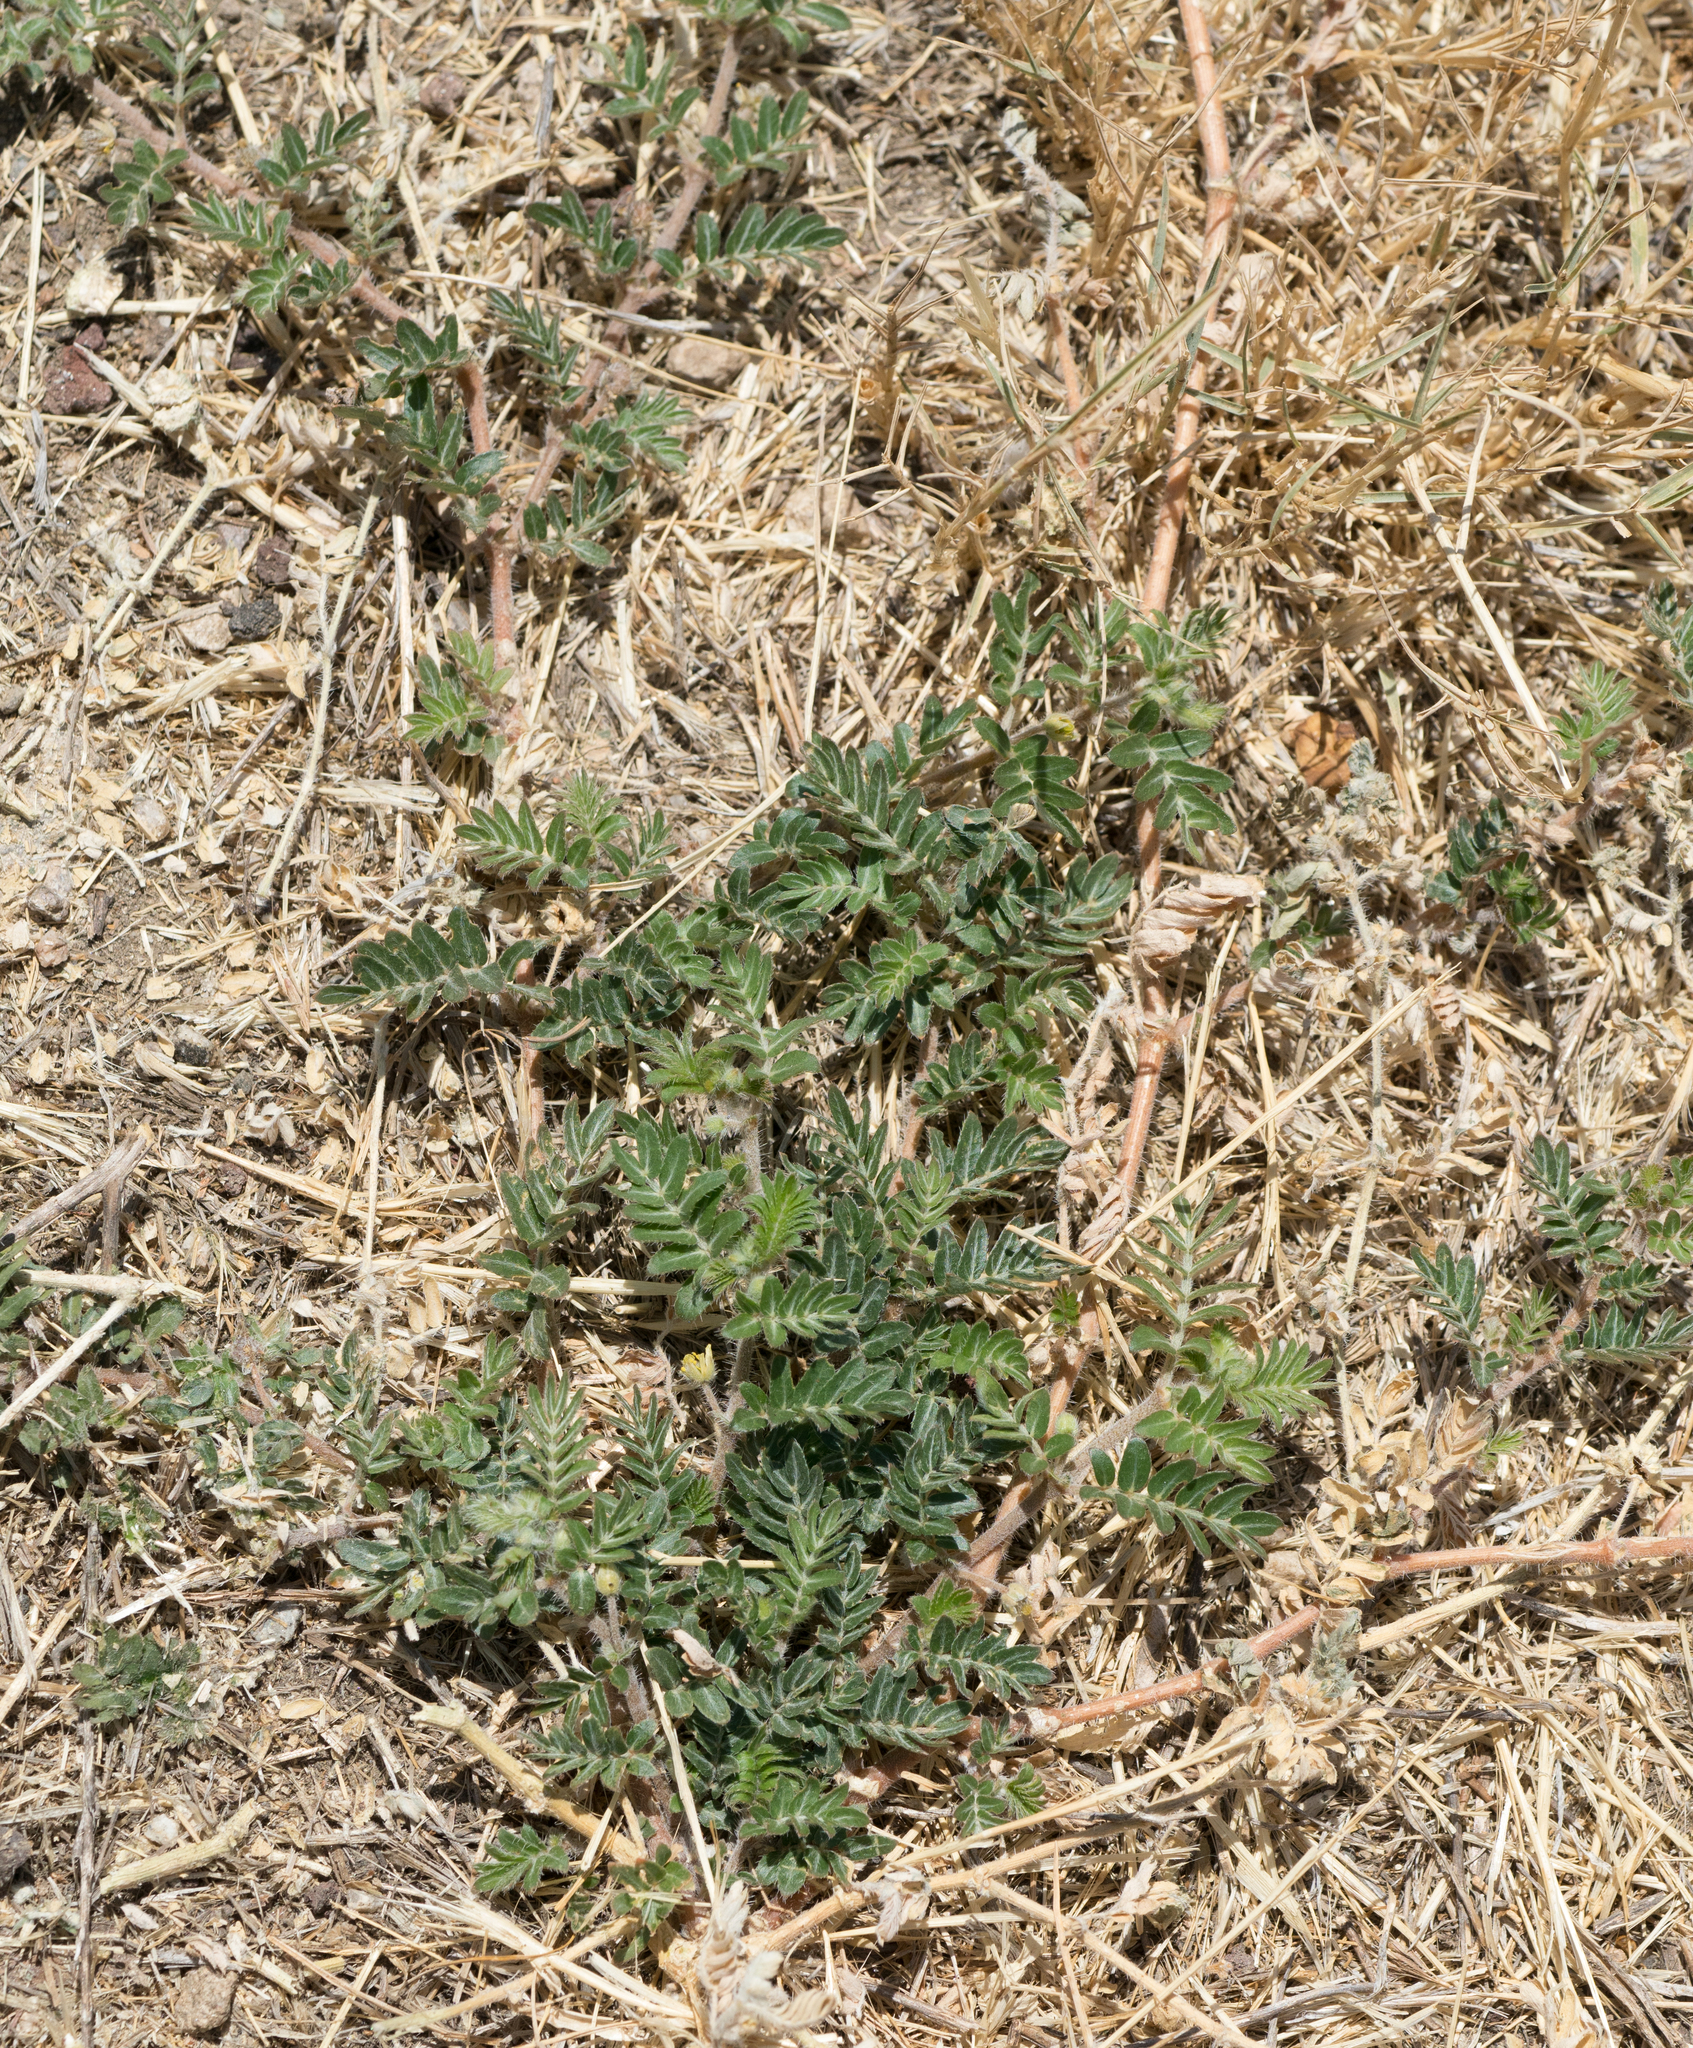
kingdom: Plantae
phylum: Tracheophyta
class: Magnoliopsida
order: Zygophyllales
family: Zygophyllaceae
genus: Tribulus
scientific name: Tribulus terrestris
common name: Puncturevine
